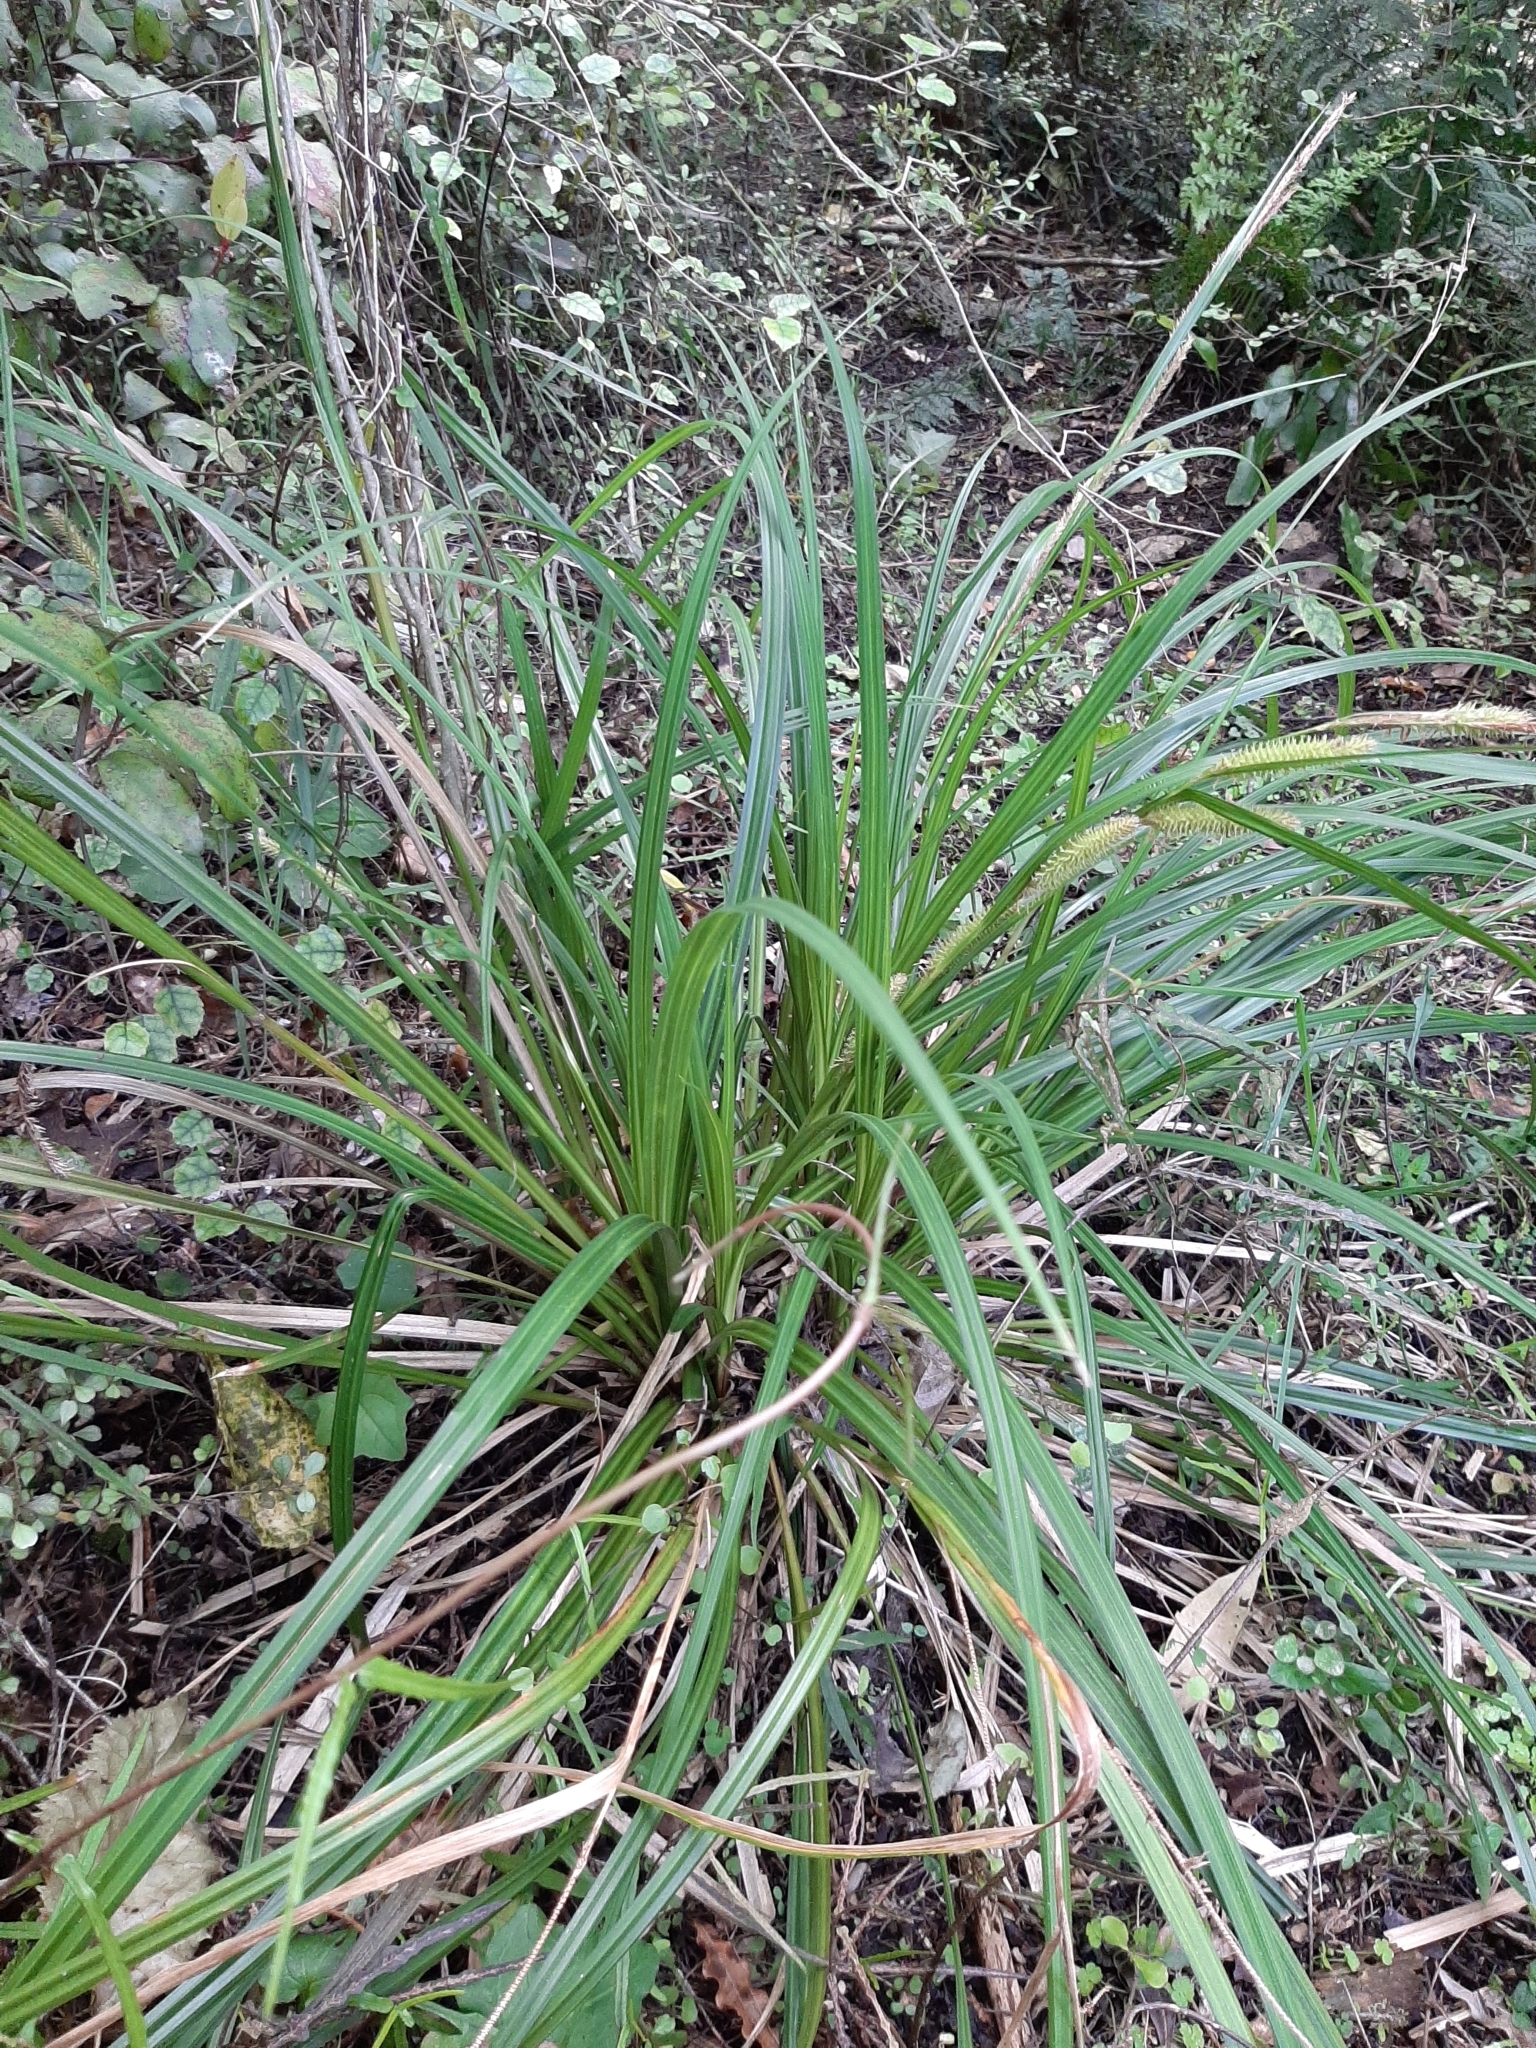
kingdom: Plantae
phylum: Tracheophyta
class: Liliopsida
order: Poales
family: Cyperaceae
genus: Carex
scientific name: Carex forsteri
